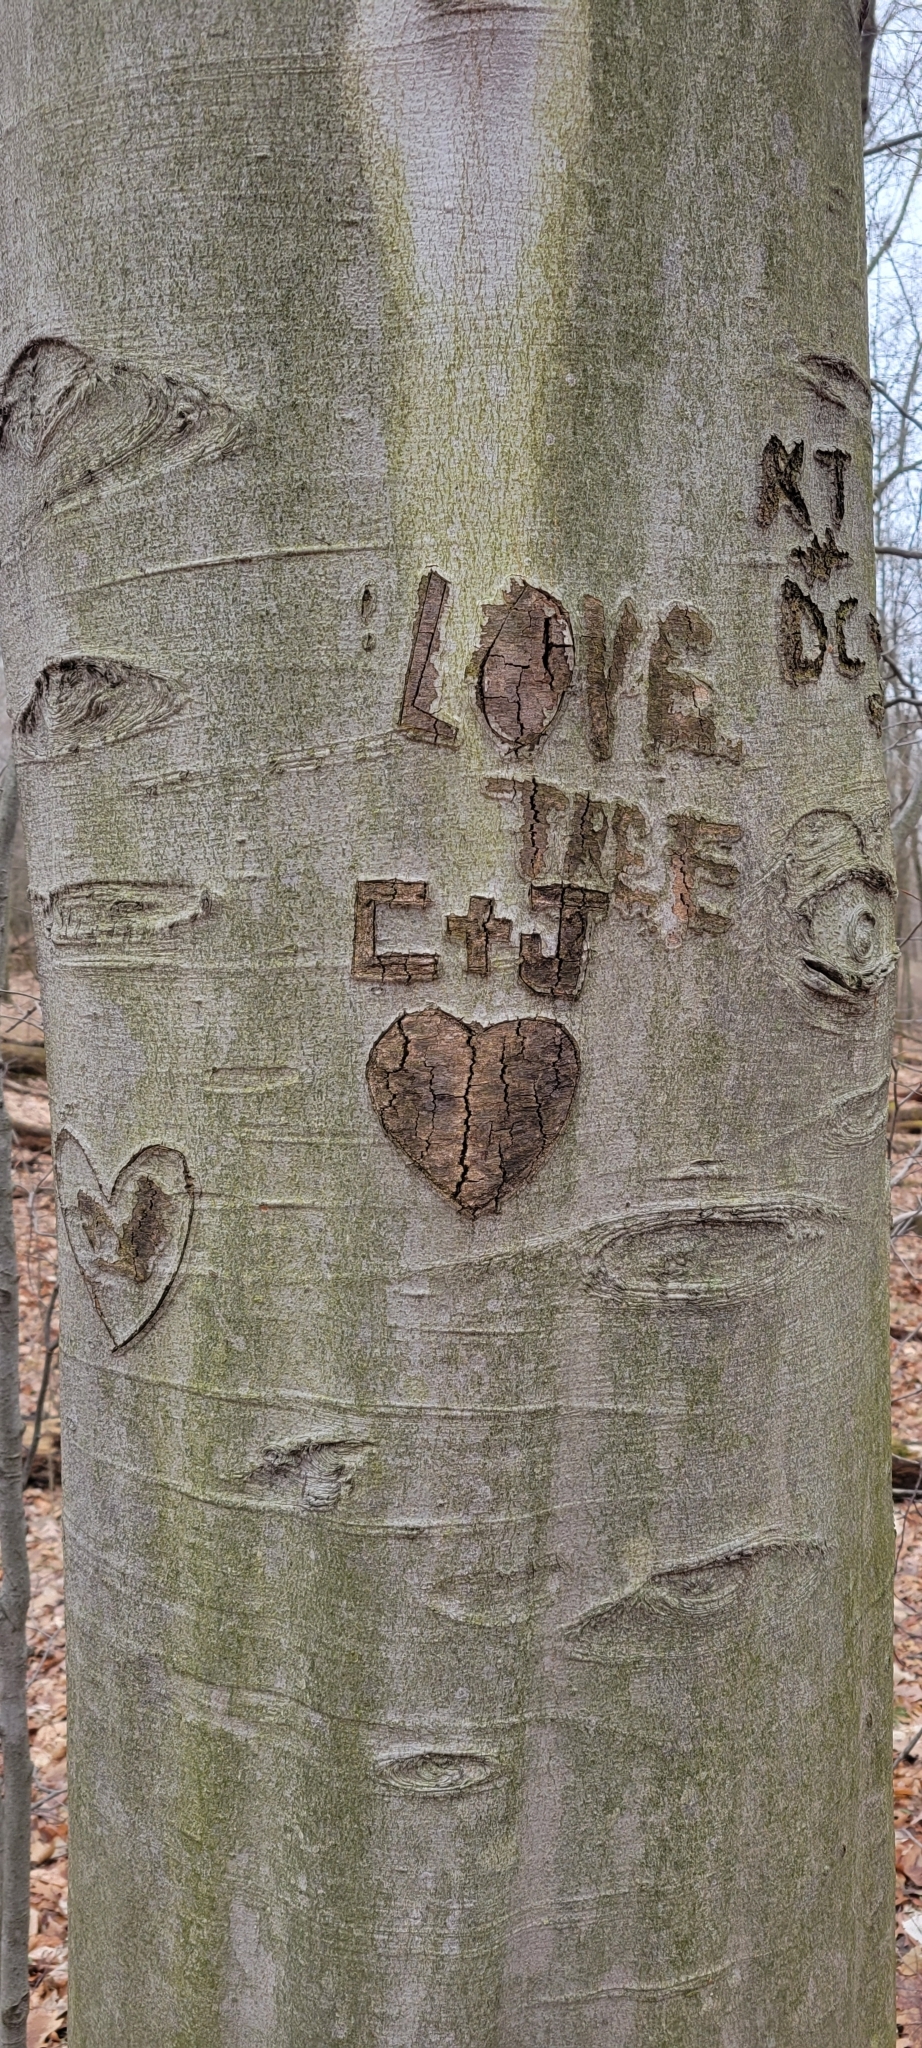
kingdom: Plantae
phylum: Tracheophyta
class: Magnoliopsida
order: Fagales
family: Fagaceae
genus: Fagus
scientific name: Fagus grandifolia
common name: American beech
